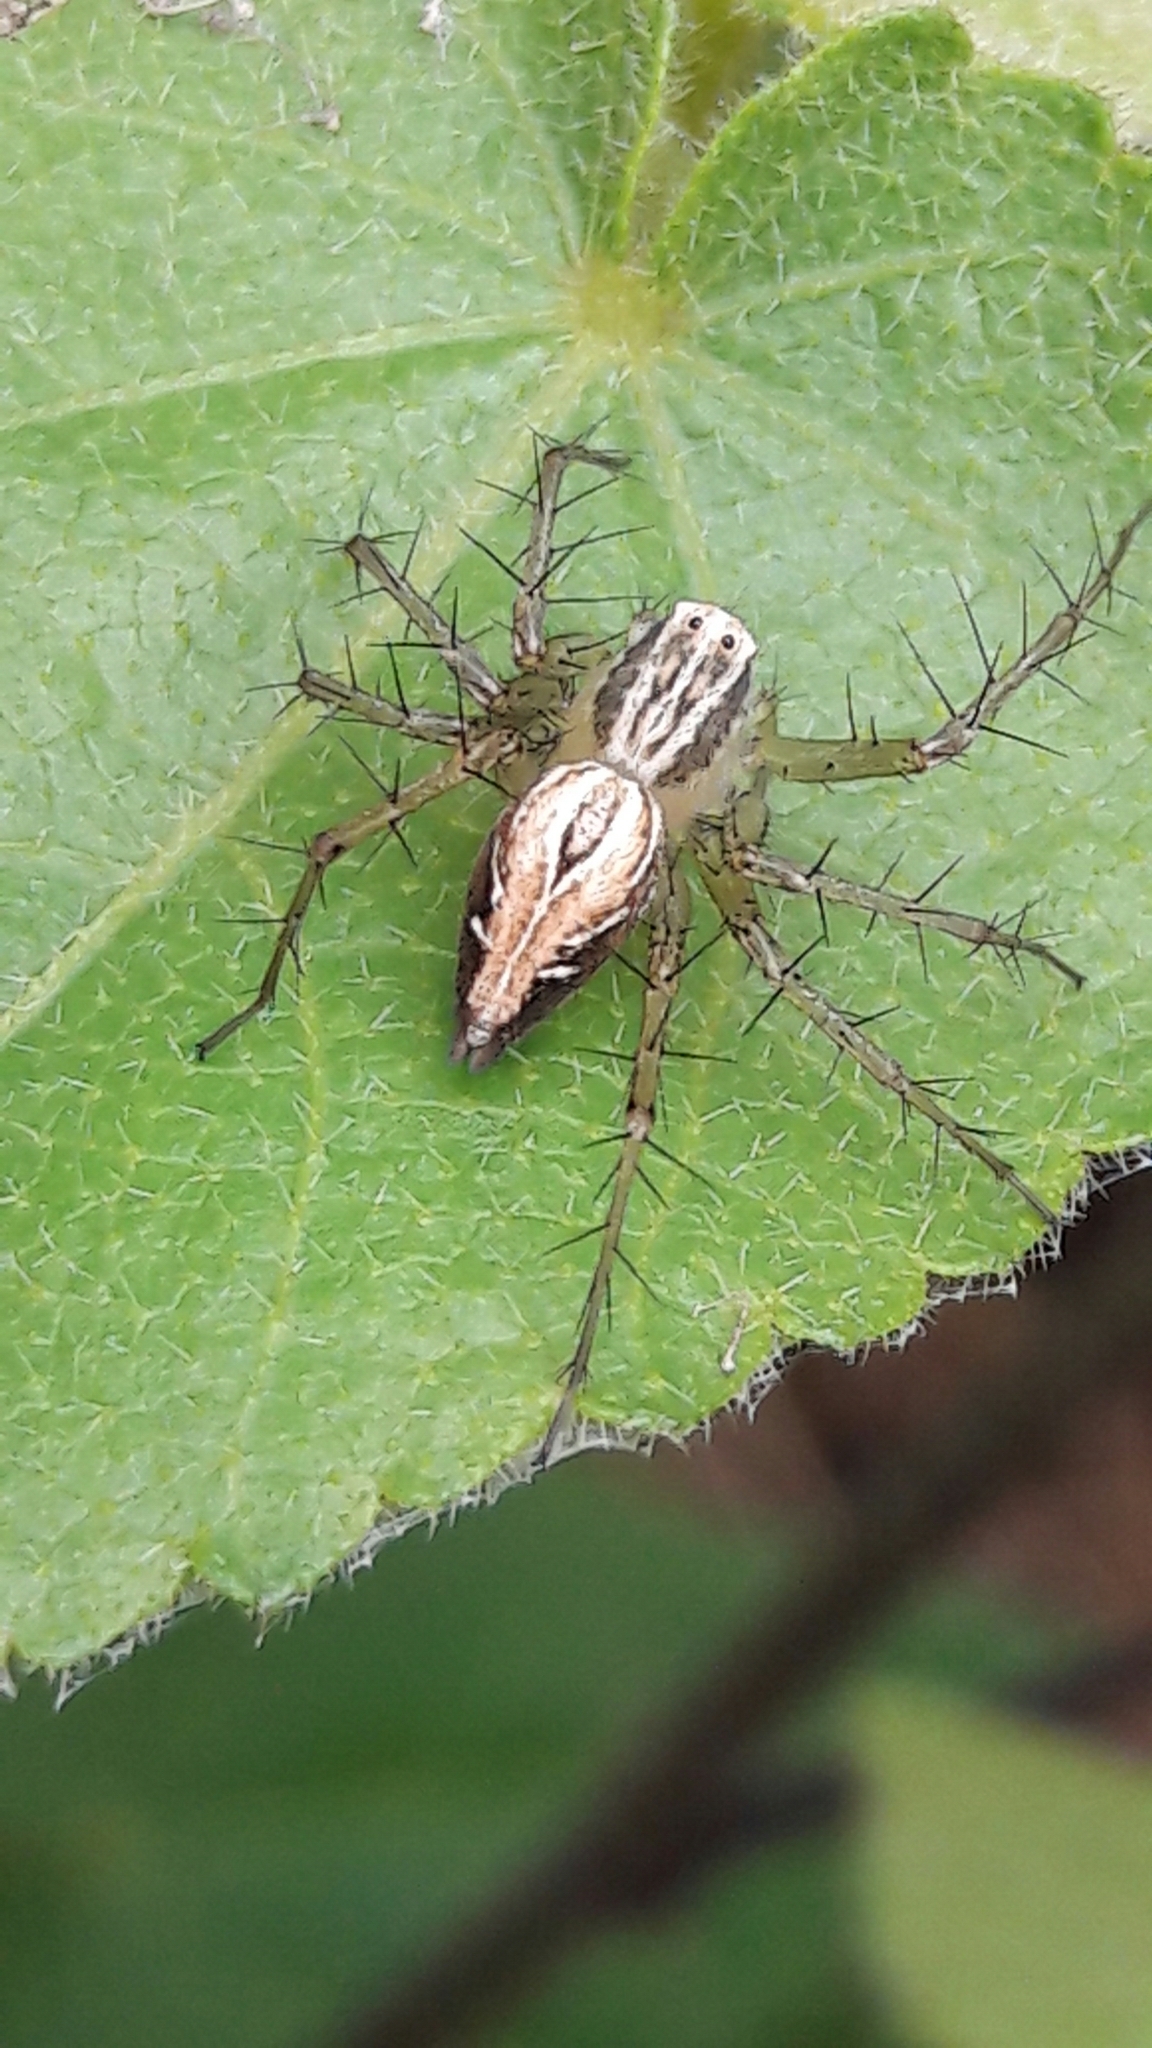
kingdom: Animalia
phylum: Arthropoda
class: Arachnida
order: Araneae
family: Oxyopidae
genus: Oxyopes
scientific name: Oxyopes salticus
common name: Lynx spiders
